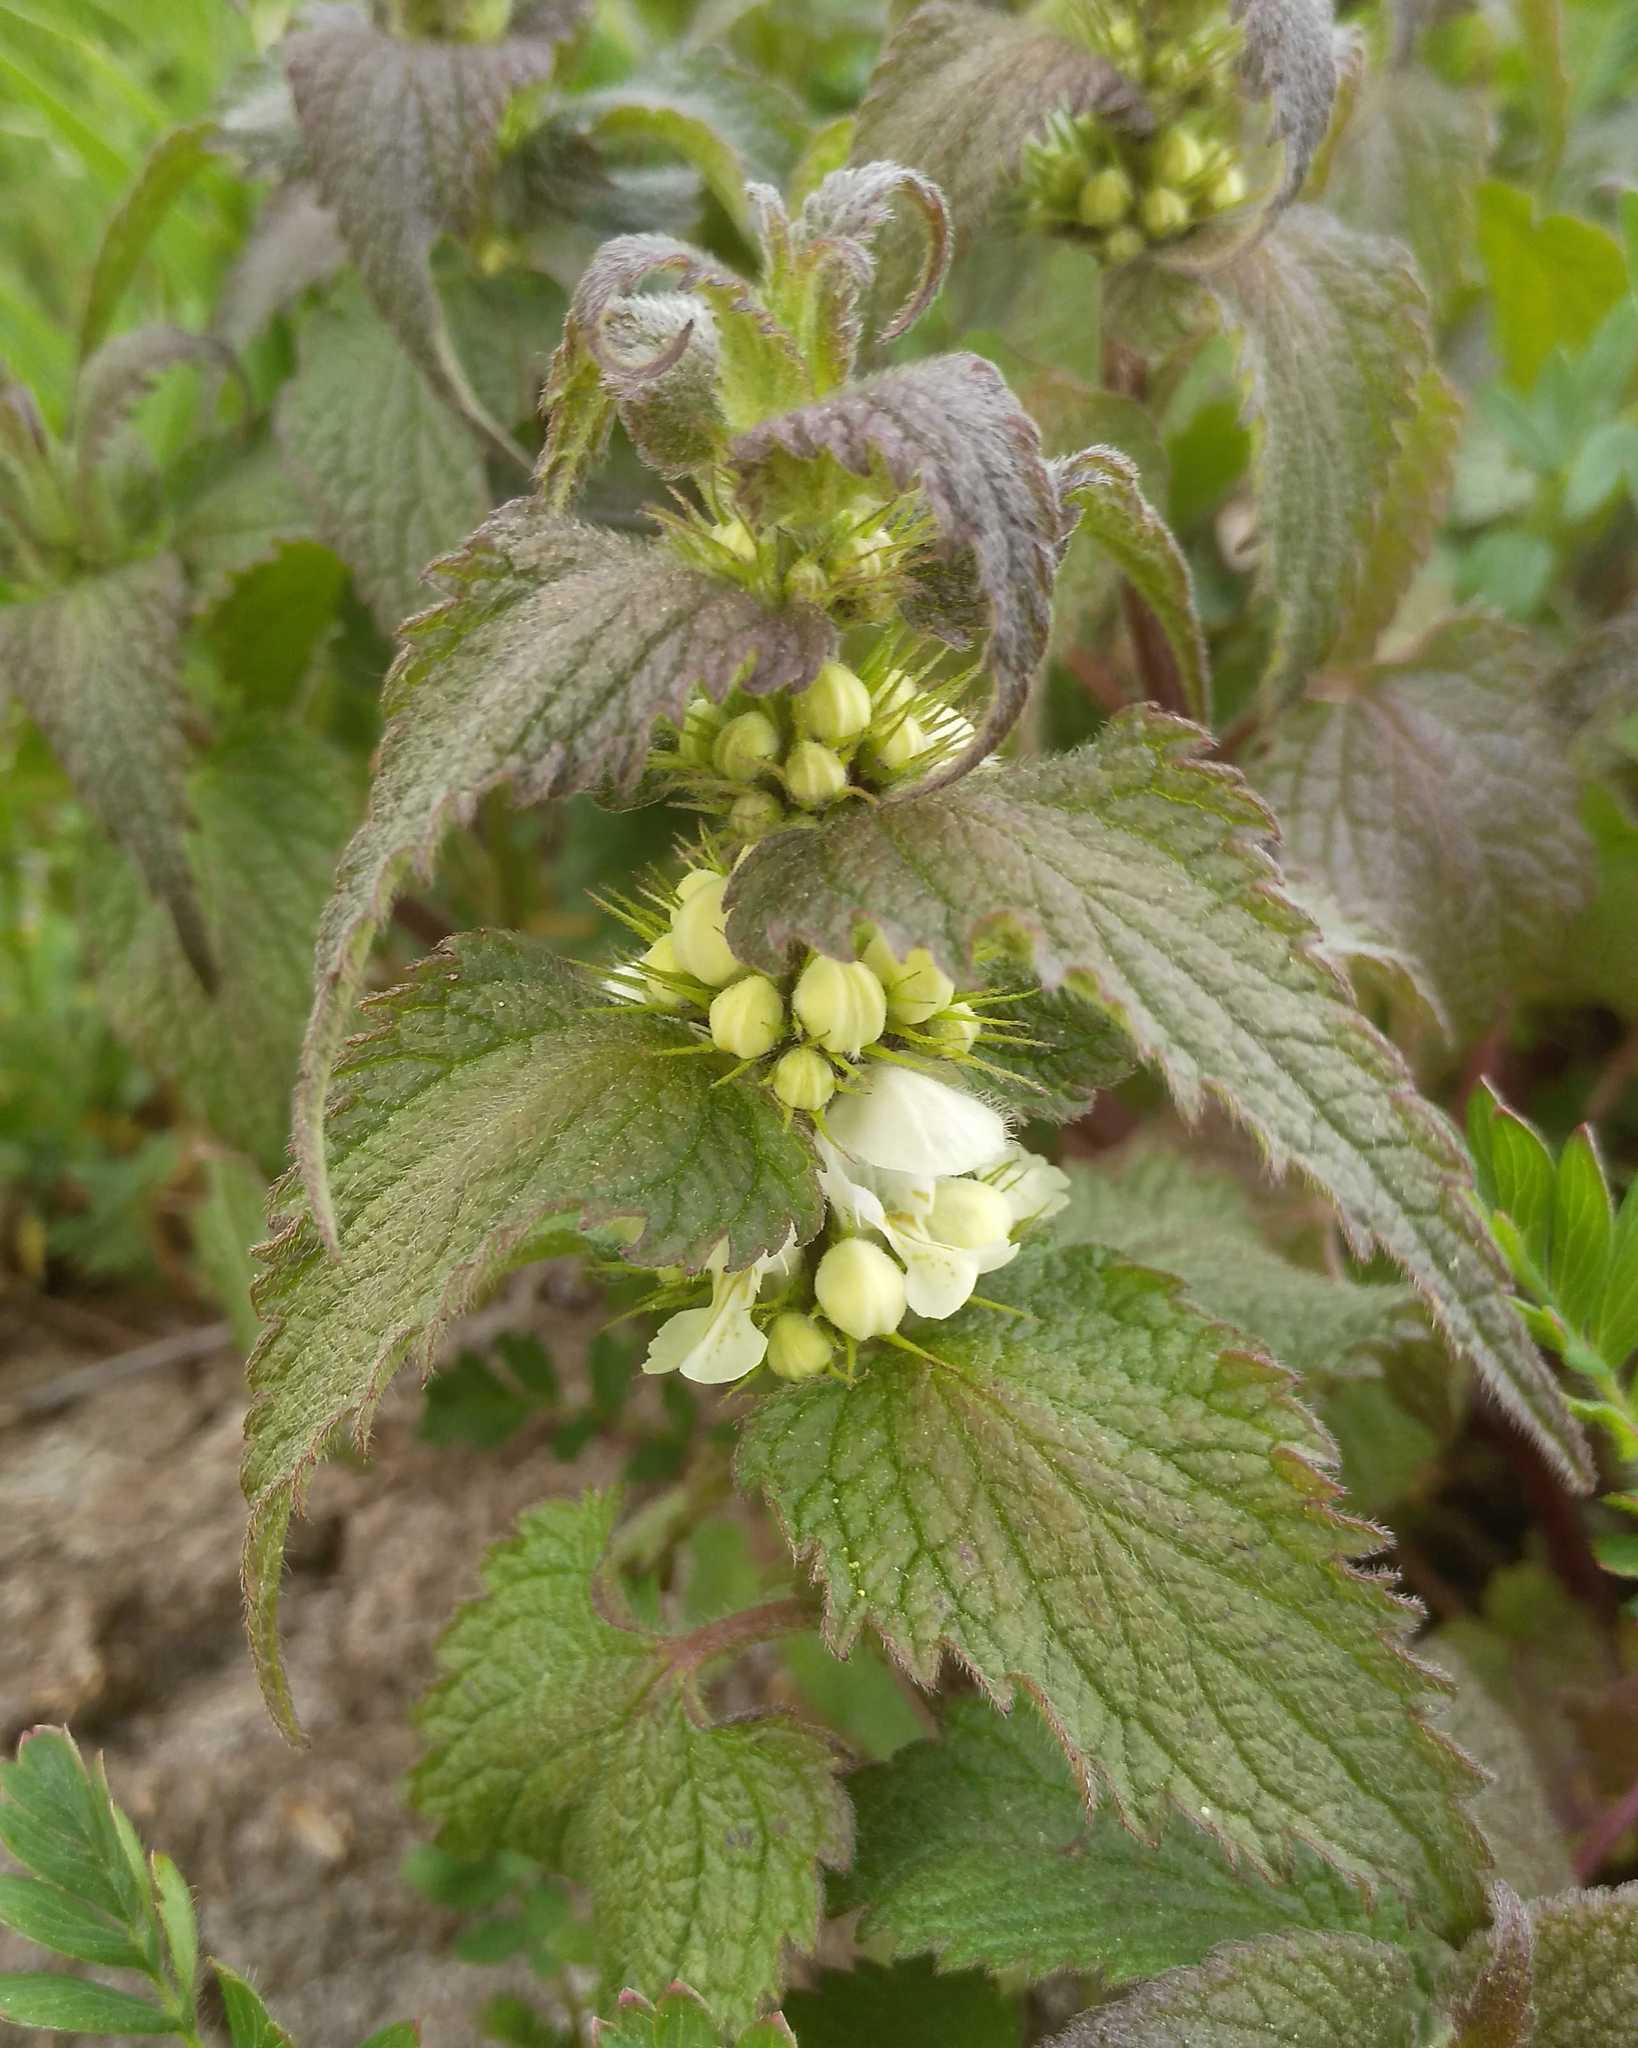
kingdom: Plantae
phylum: Tracheophyta
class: Magnoliopsida
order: Lamiales
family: Lamiaceae
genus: Lamium
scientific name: Lamium album
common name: White dead-nettle
